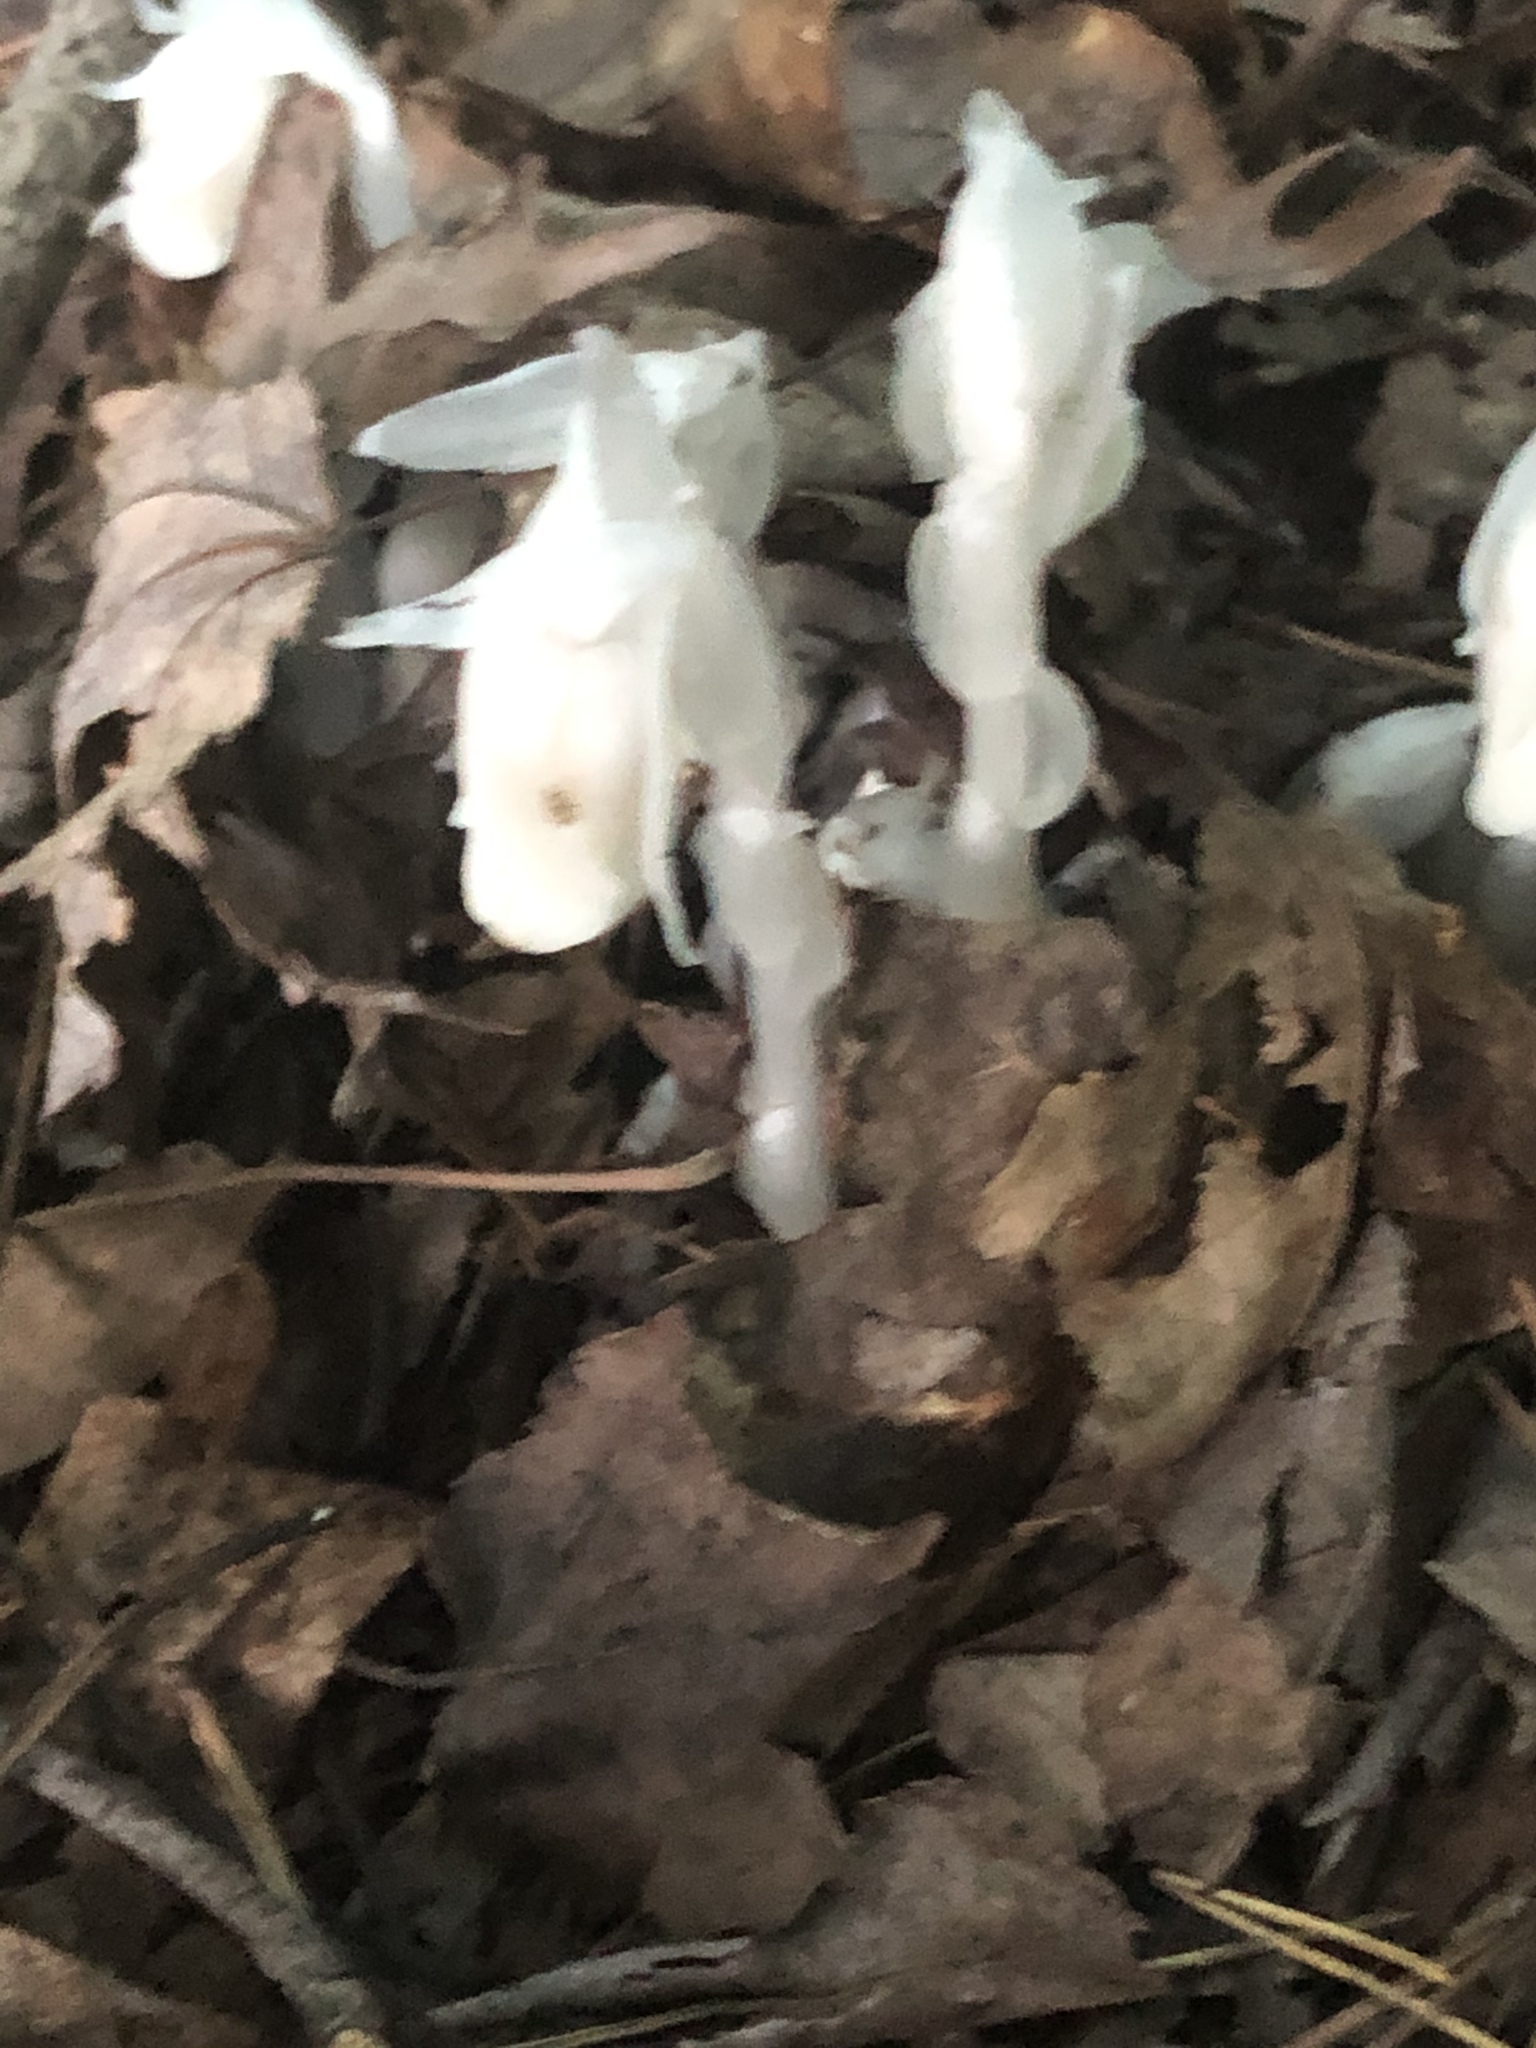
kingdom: Plantae
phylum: Tracheophyta
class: Magnoliopsida
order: Ericales
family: Ericaceae
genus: Monotropa
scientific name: Monotropa uniflora
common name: Convulsion root
